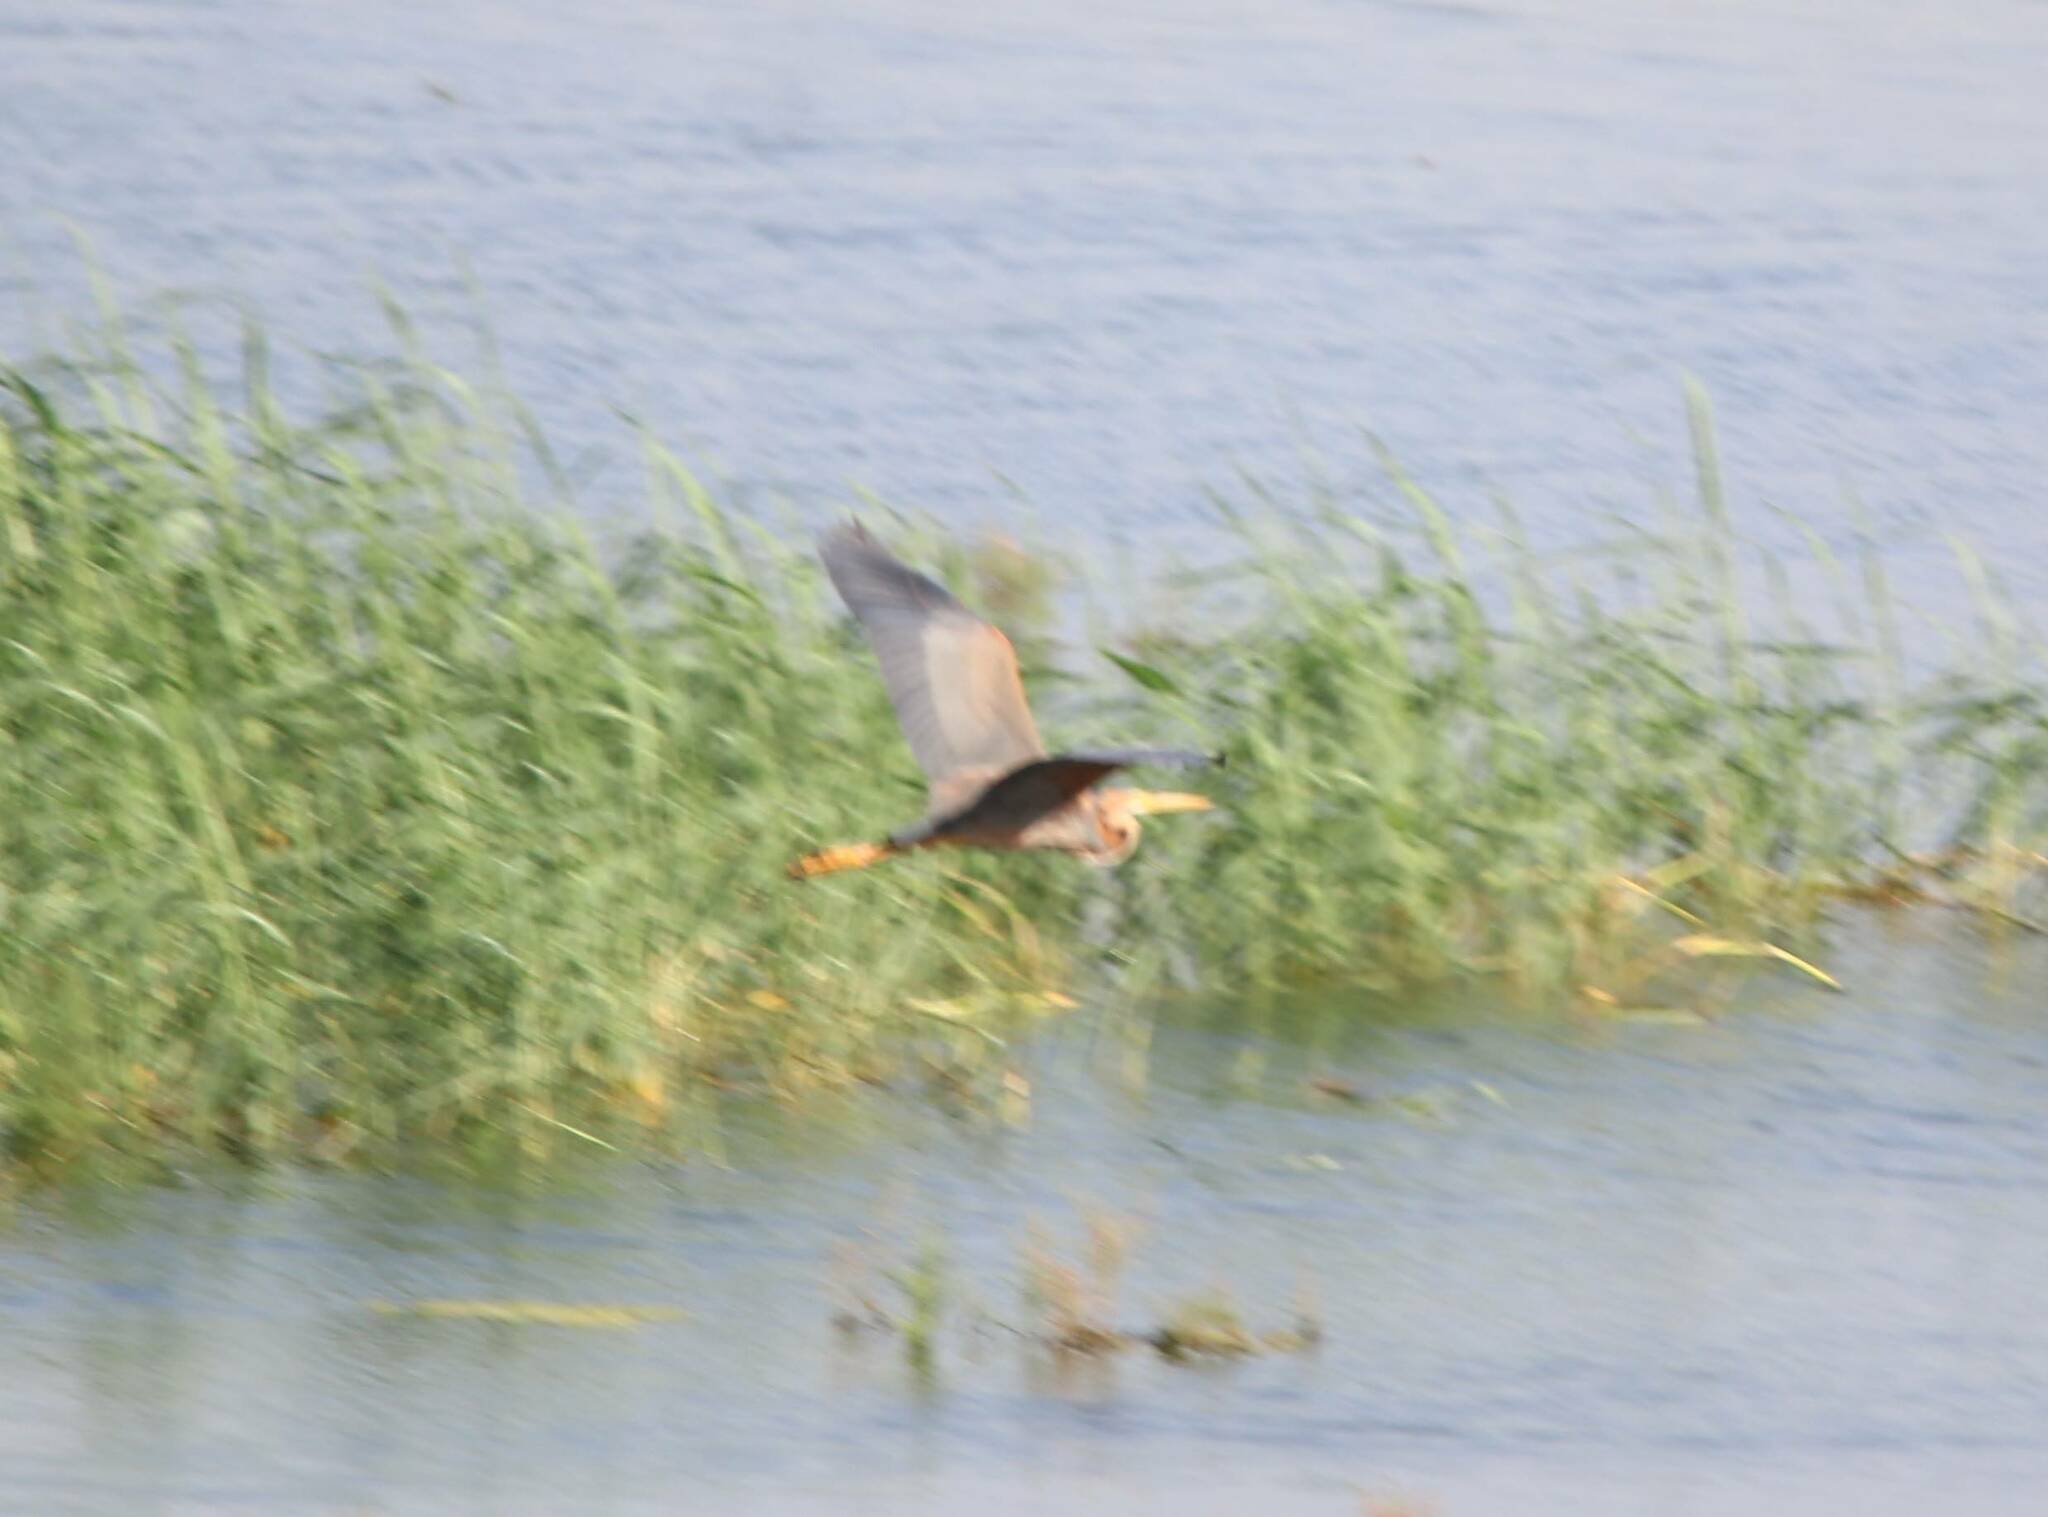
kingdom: Animalia
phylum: Chordata
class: Aves
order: Pelecaniformes
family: Ardeidae
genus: Ardea
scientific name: Ardea purpurea
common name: Purple heron
